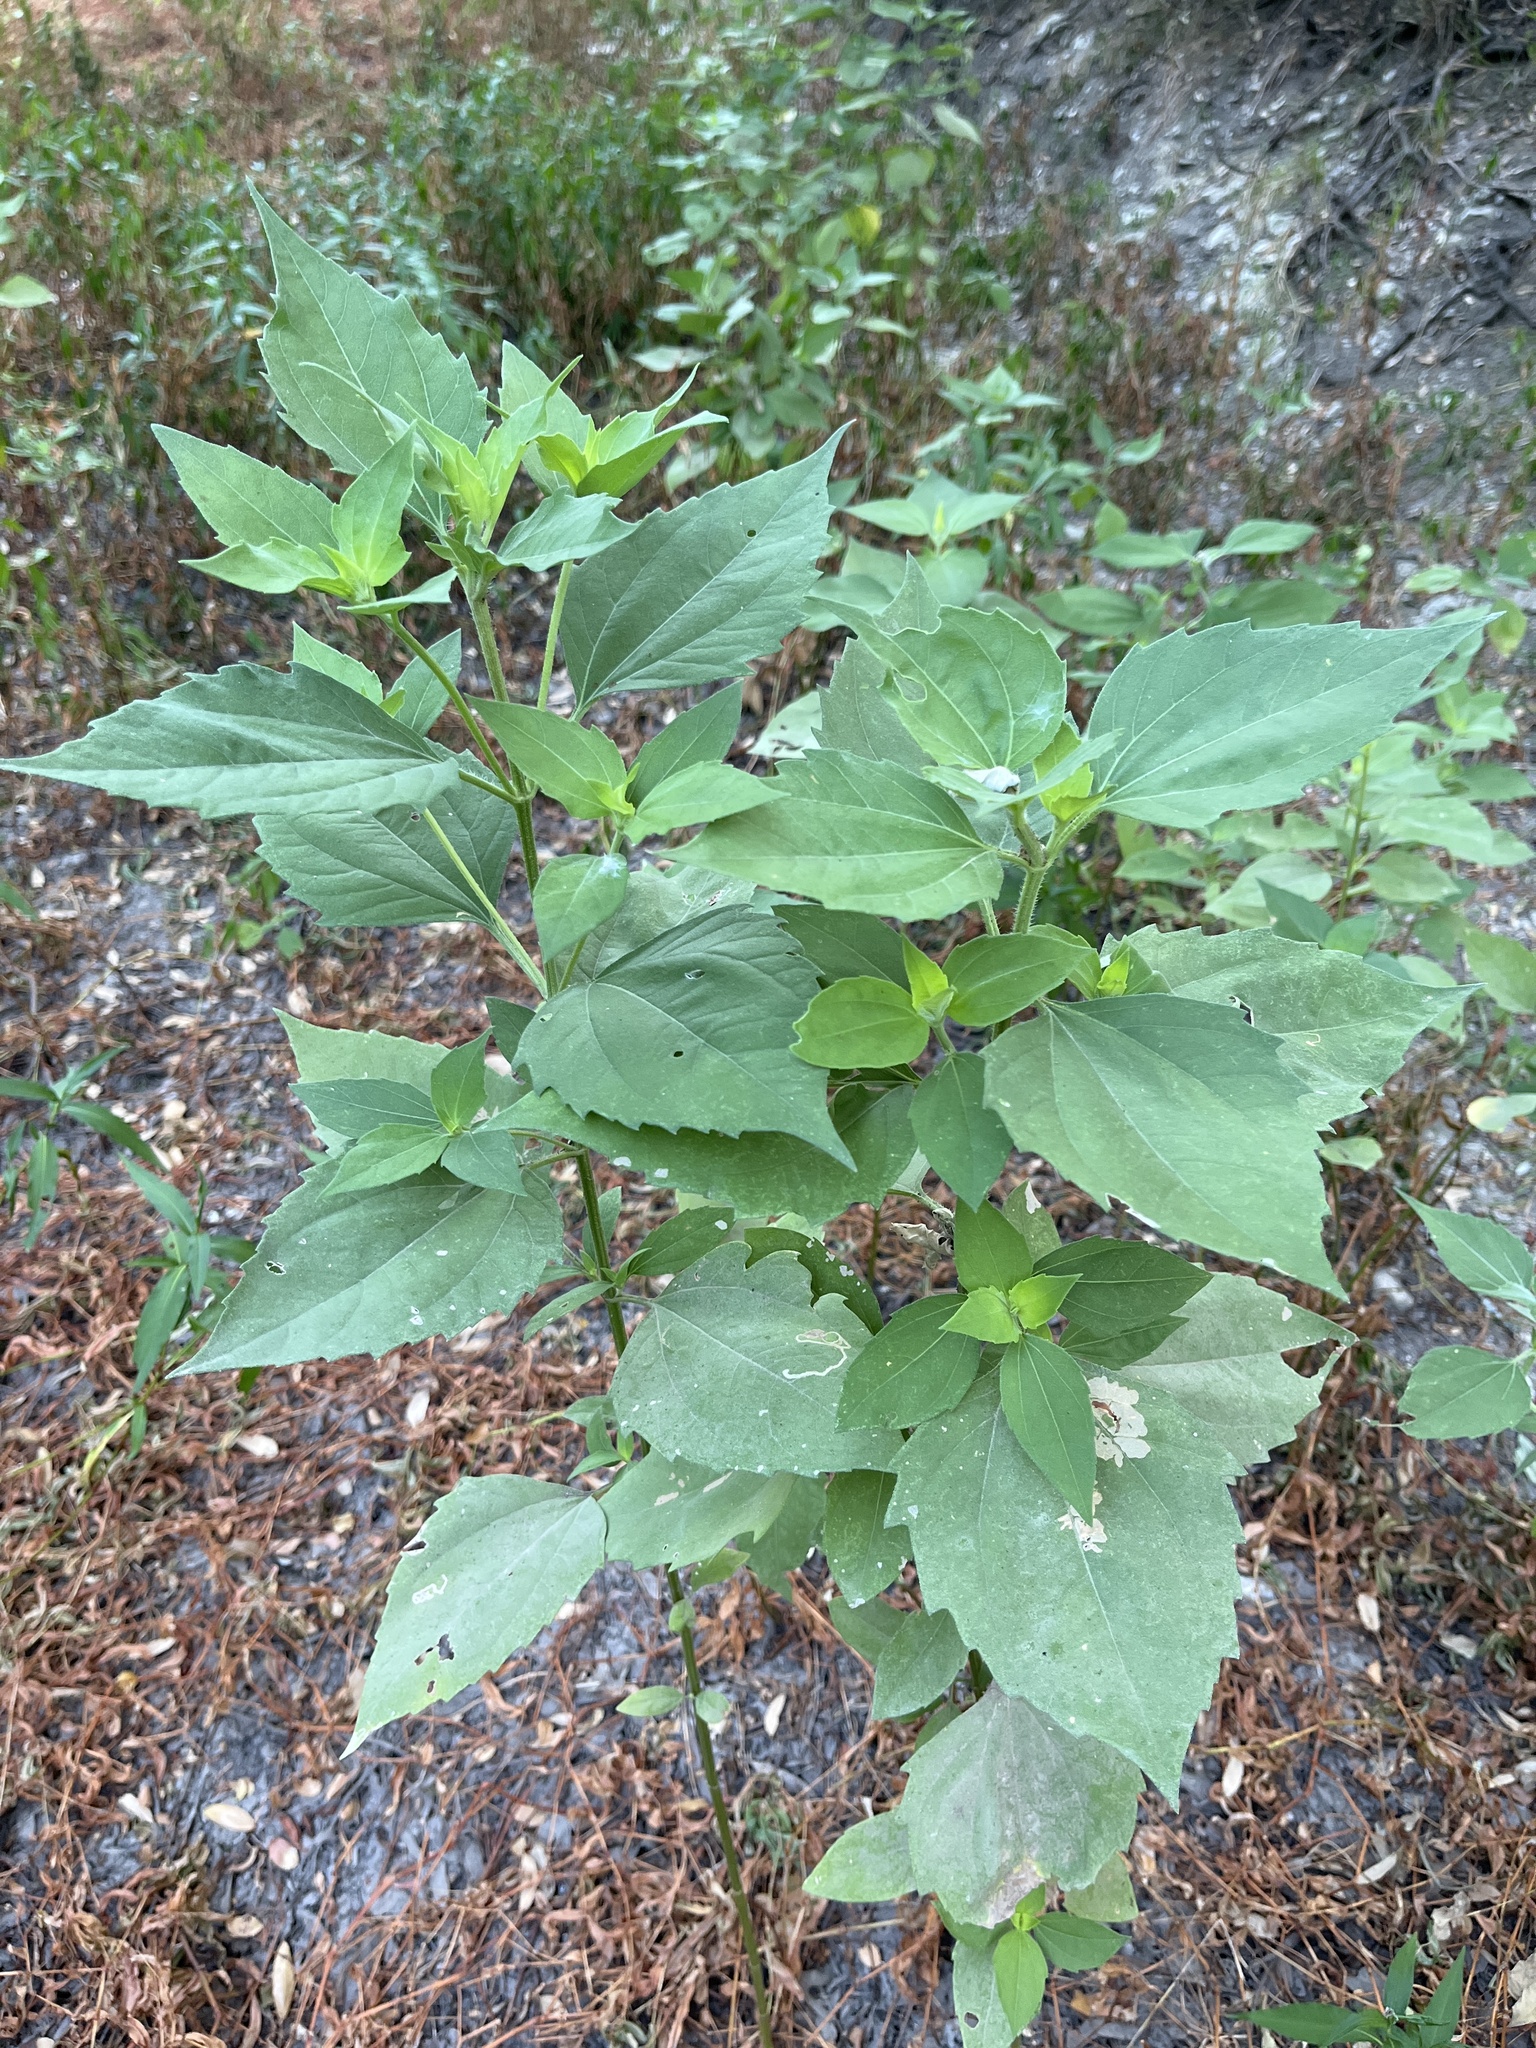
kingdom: Plantae
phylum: Tracheophyta
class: Magnoliopsida
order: Asterales
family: Asteraceae
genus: Iva
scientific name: Iva annua
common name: Marsh-elder
